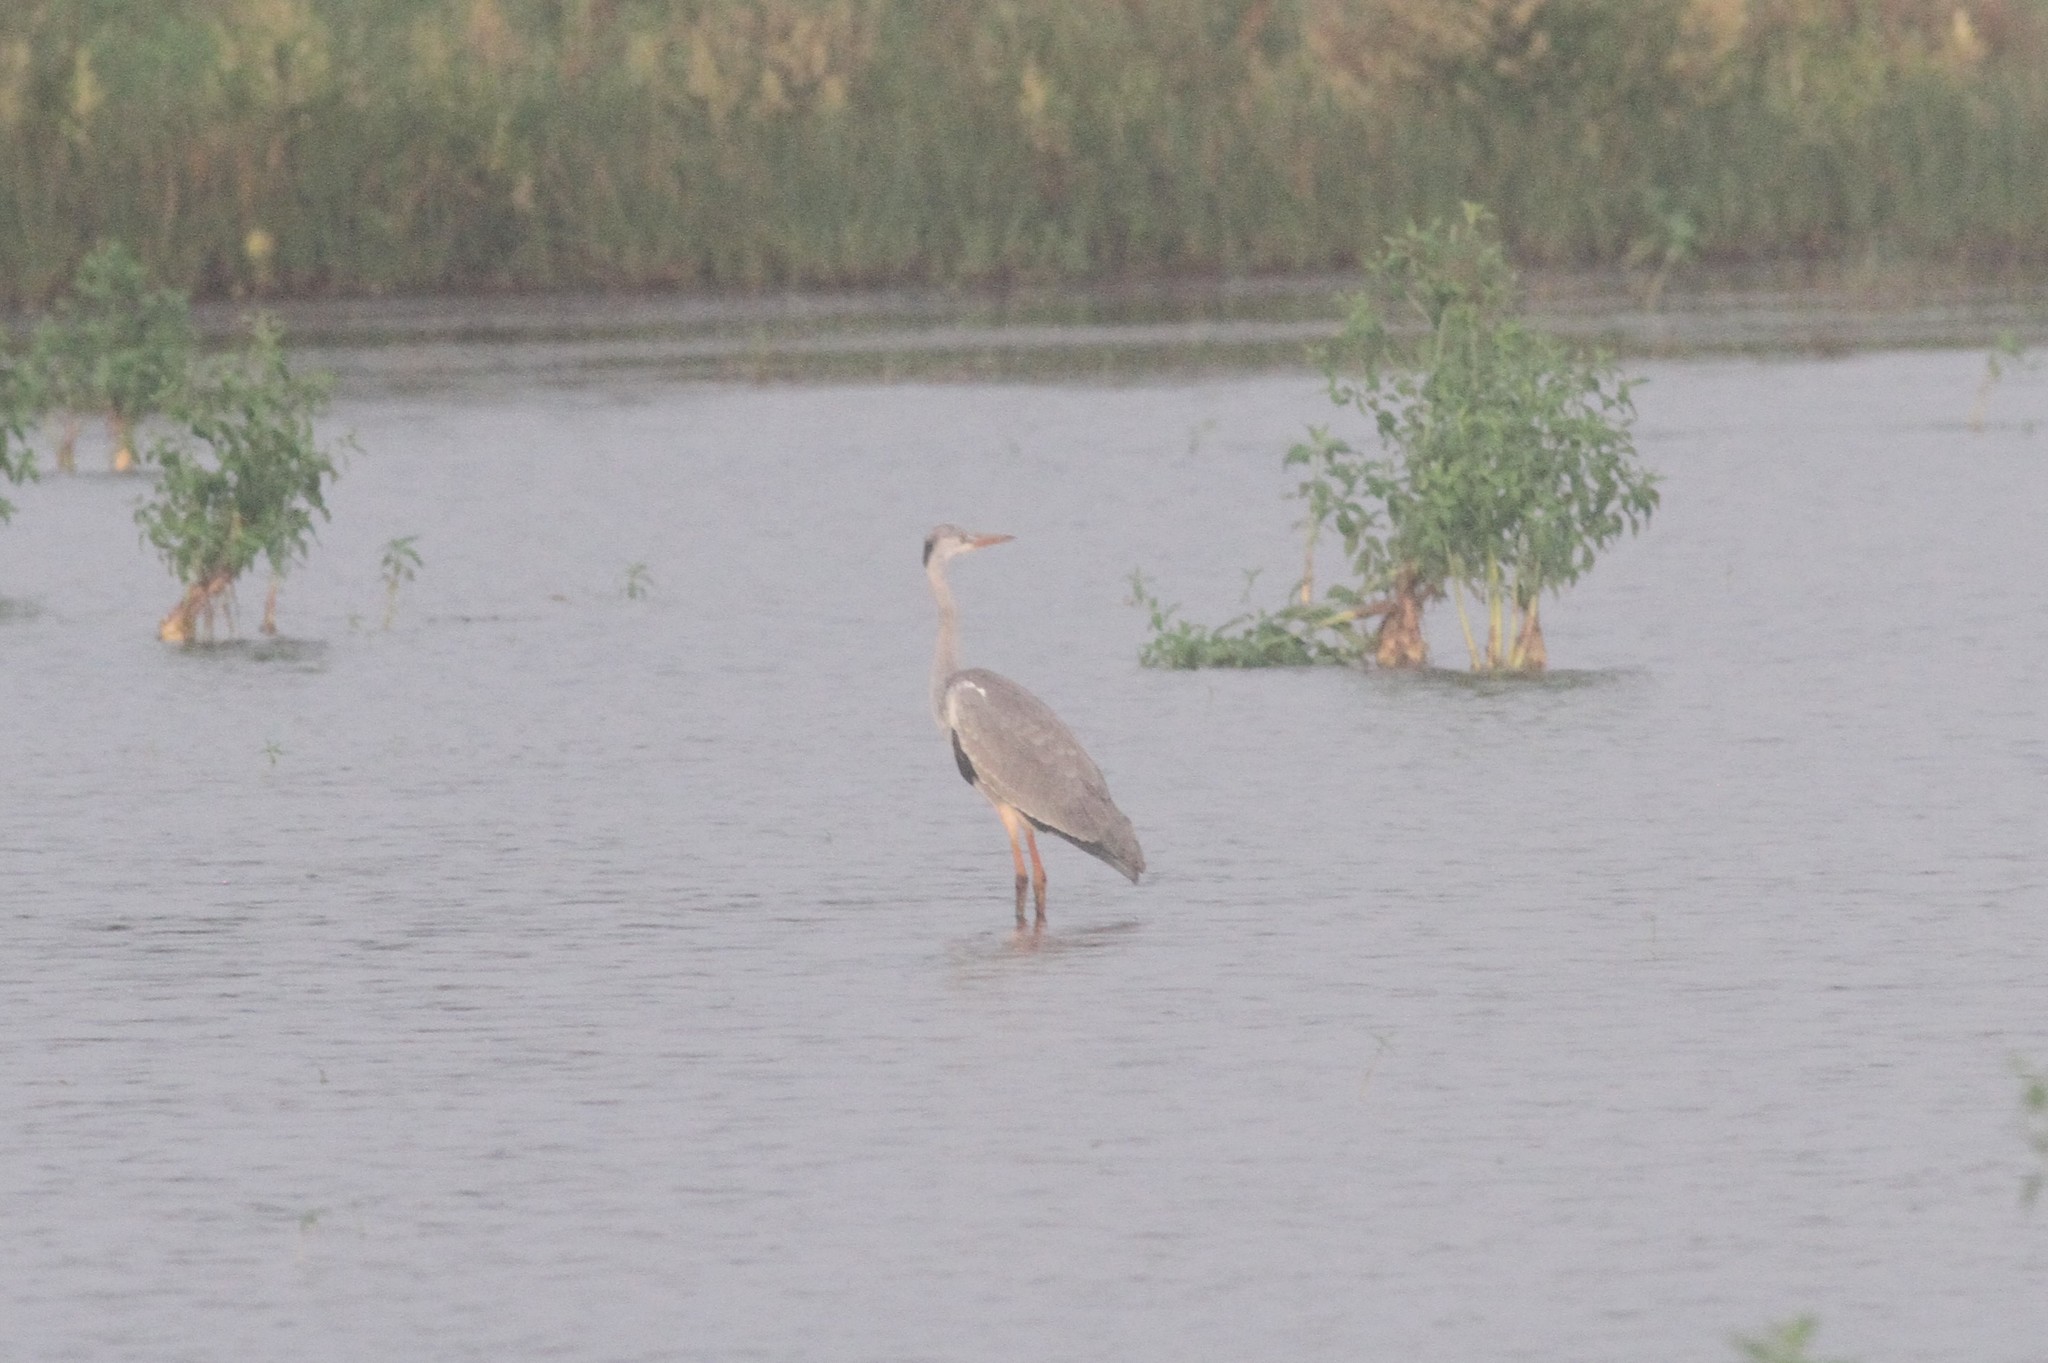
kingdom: Animalia
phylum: Chordata
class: Aves
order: Pelecaniformes
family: Ardeidae
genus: Ardea
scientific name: Ardea cinerea
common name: Grey heron
